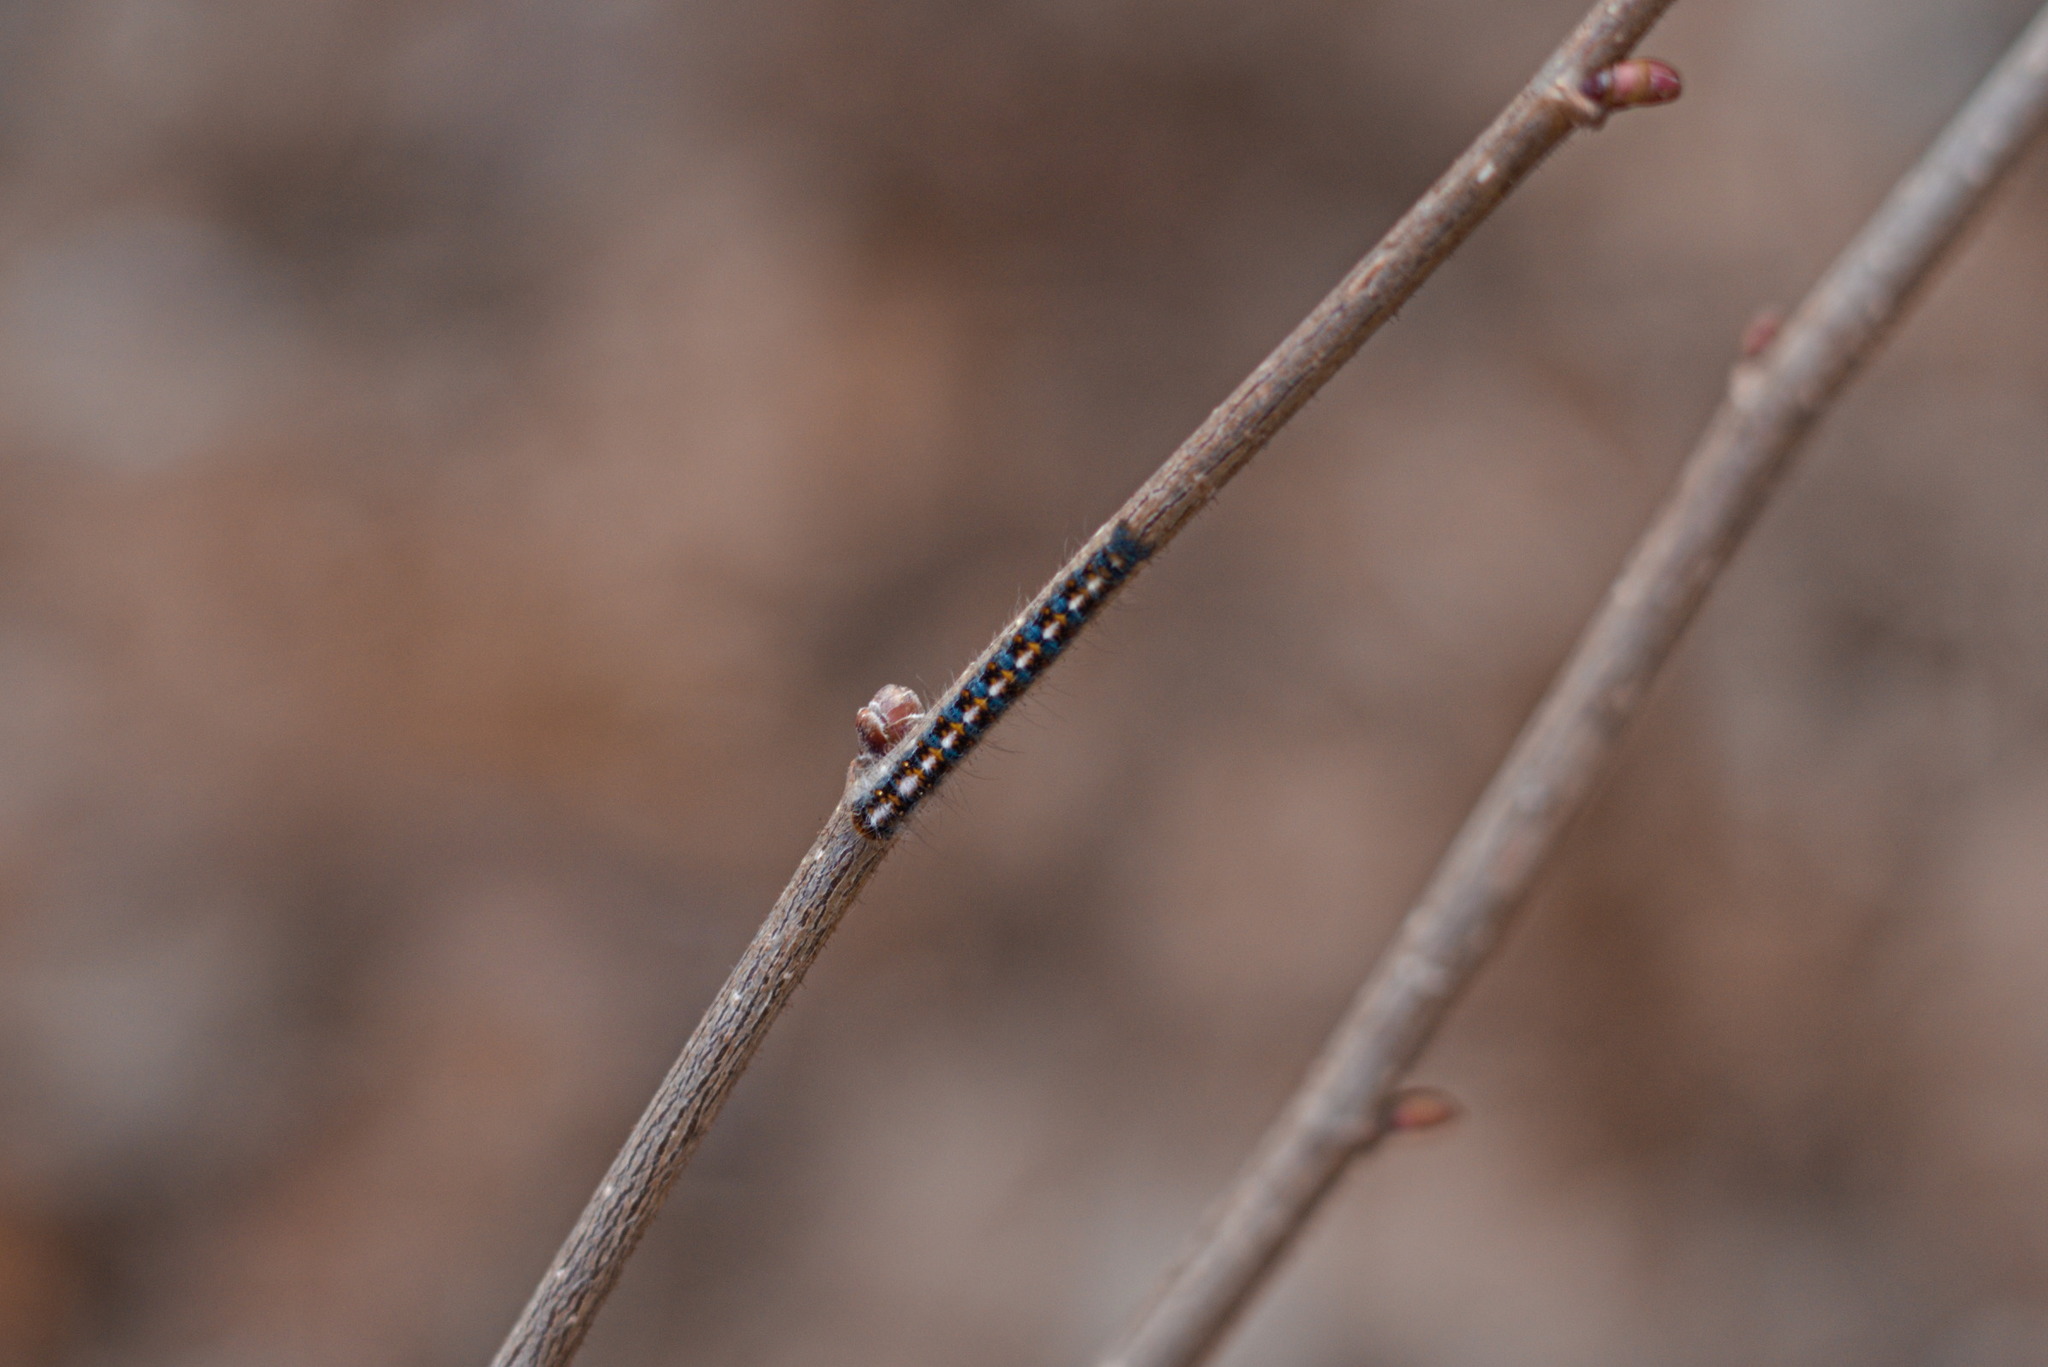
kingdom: Animalia
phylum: Arthropoda
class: Insecta
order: Lepidoptera
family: Lasiocampidae
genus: Lasiocampa
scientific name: Lasiocampa quercus
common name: Oak eggar
